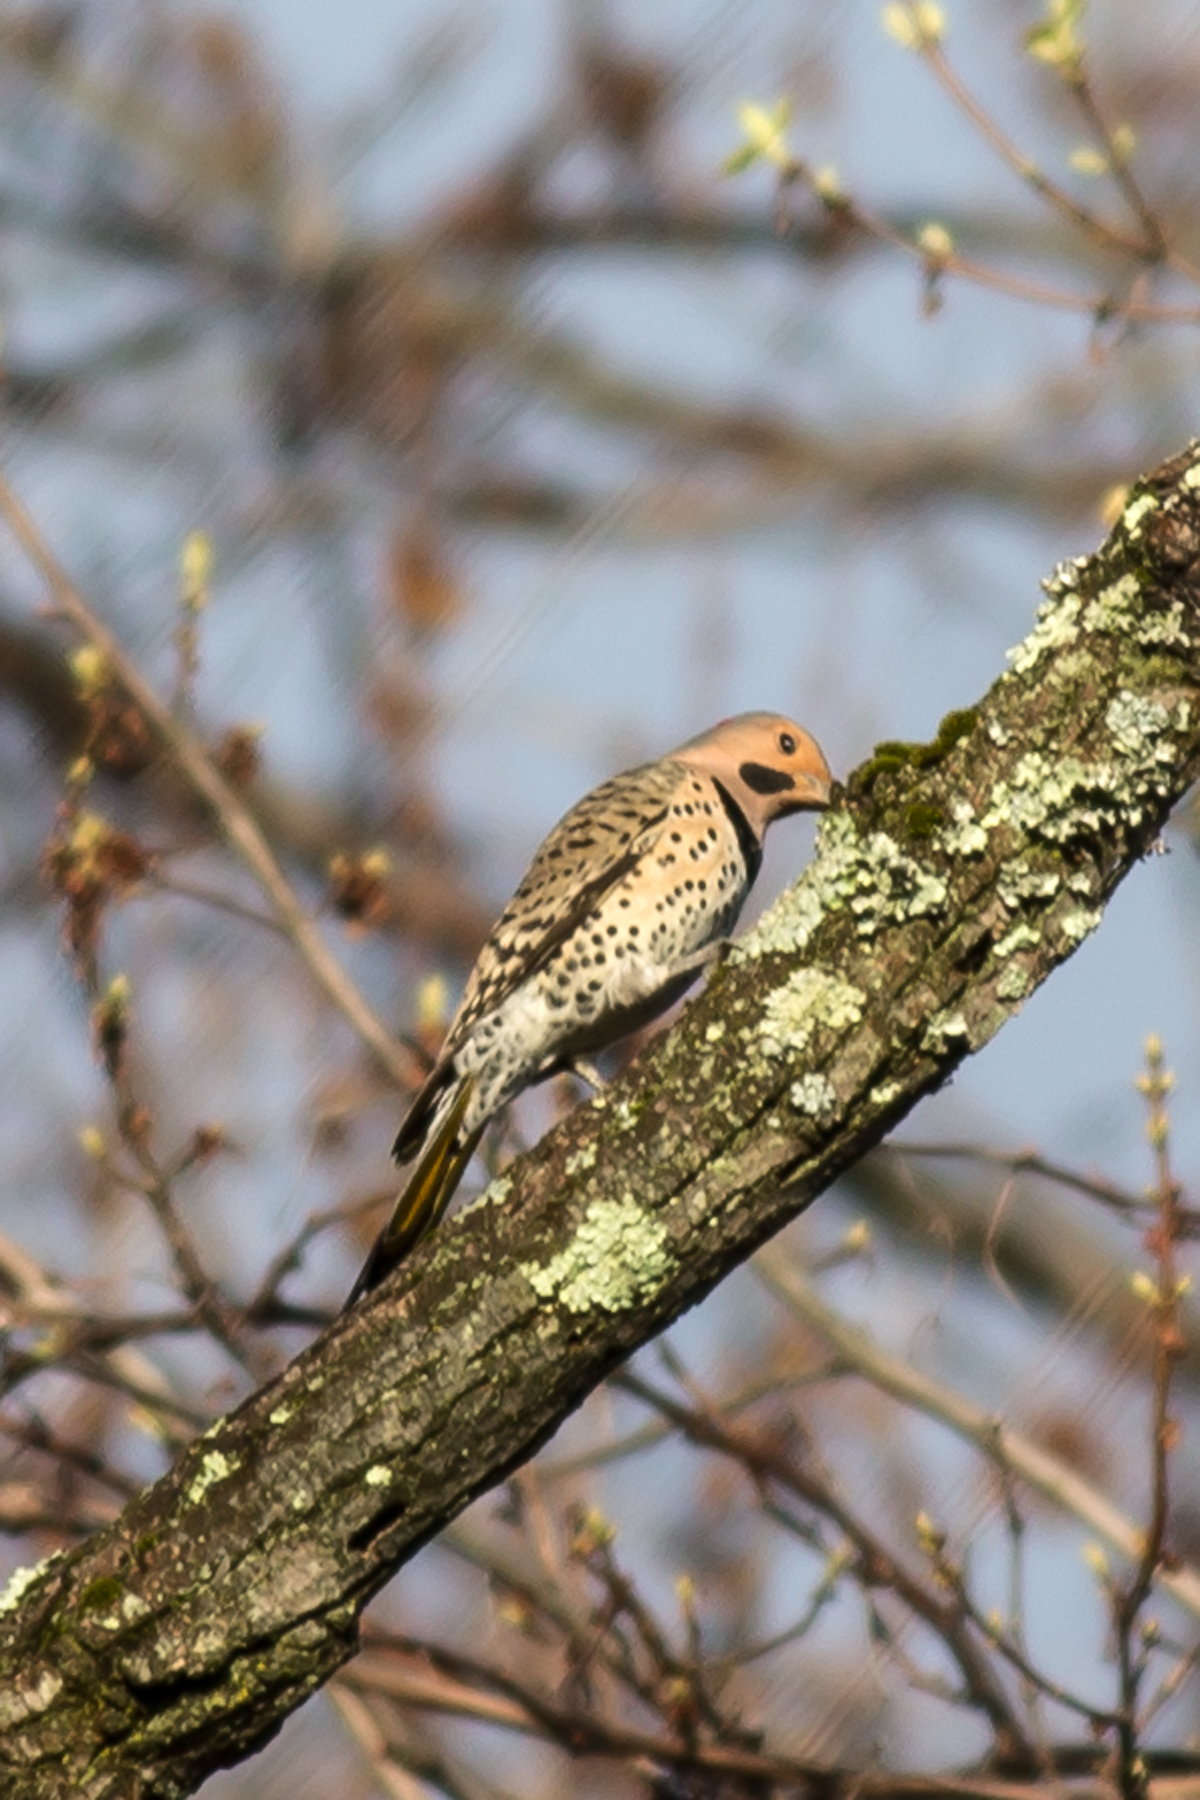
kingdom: Animalia
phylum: Chordata
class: Aves
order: Piciformes
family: Picidae
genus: Colaptes
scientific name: Colaptes auratus
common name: Northern flicker
